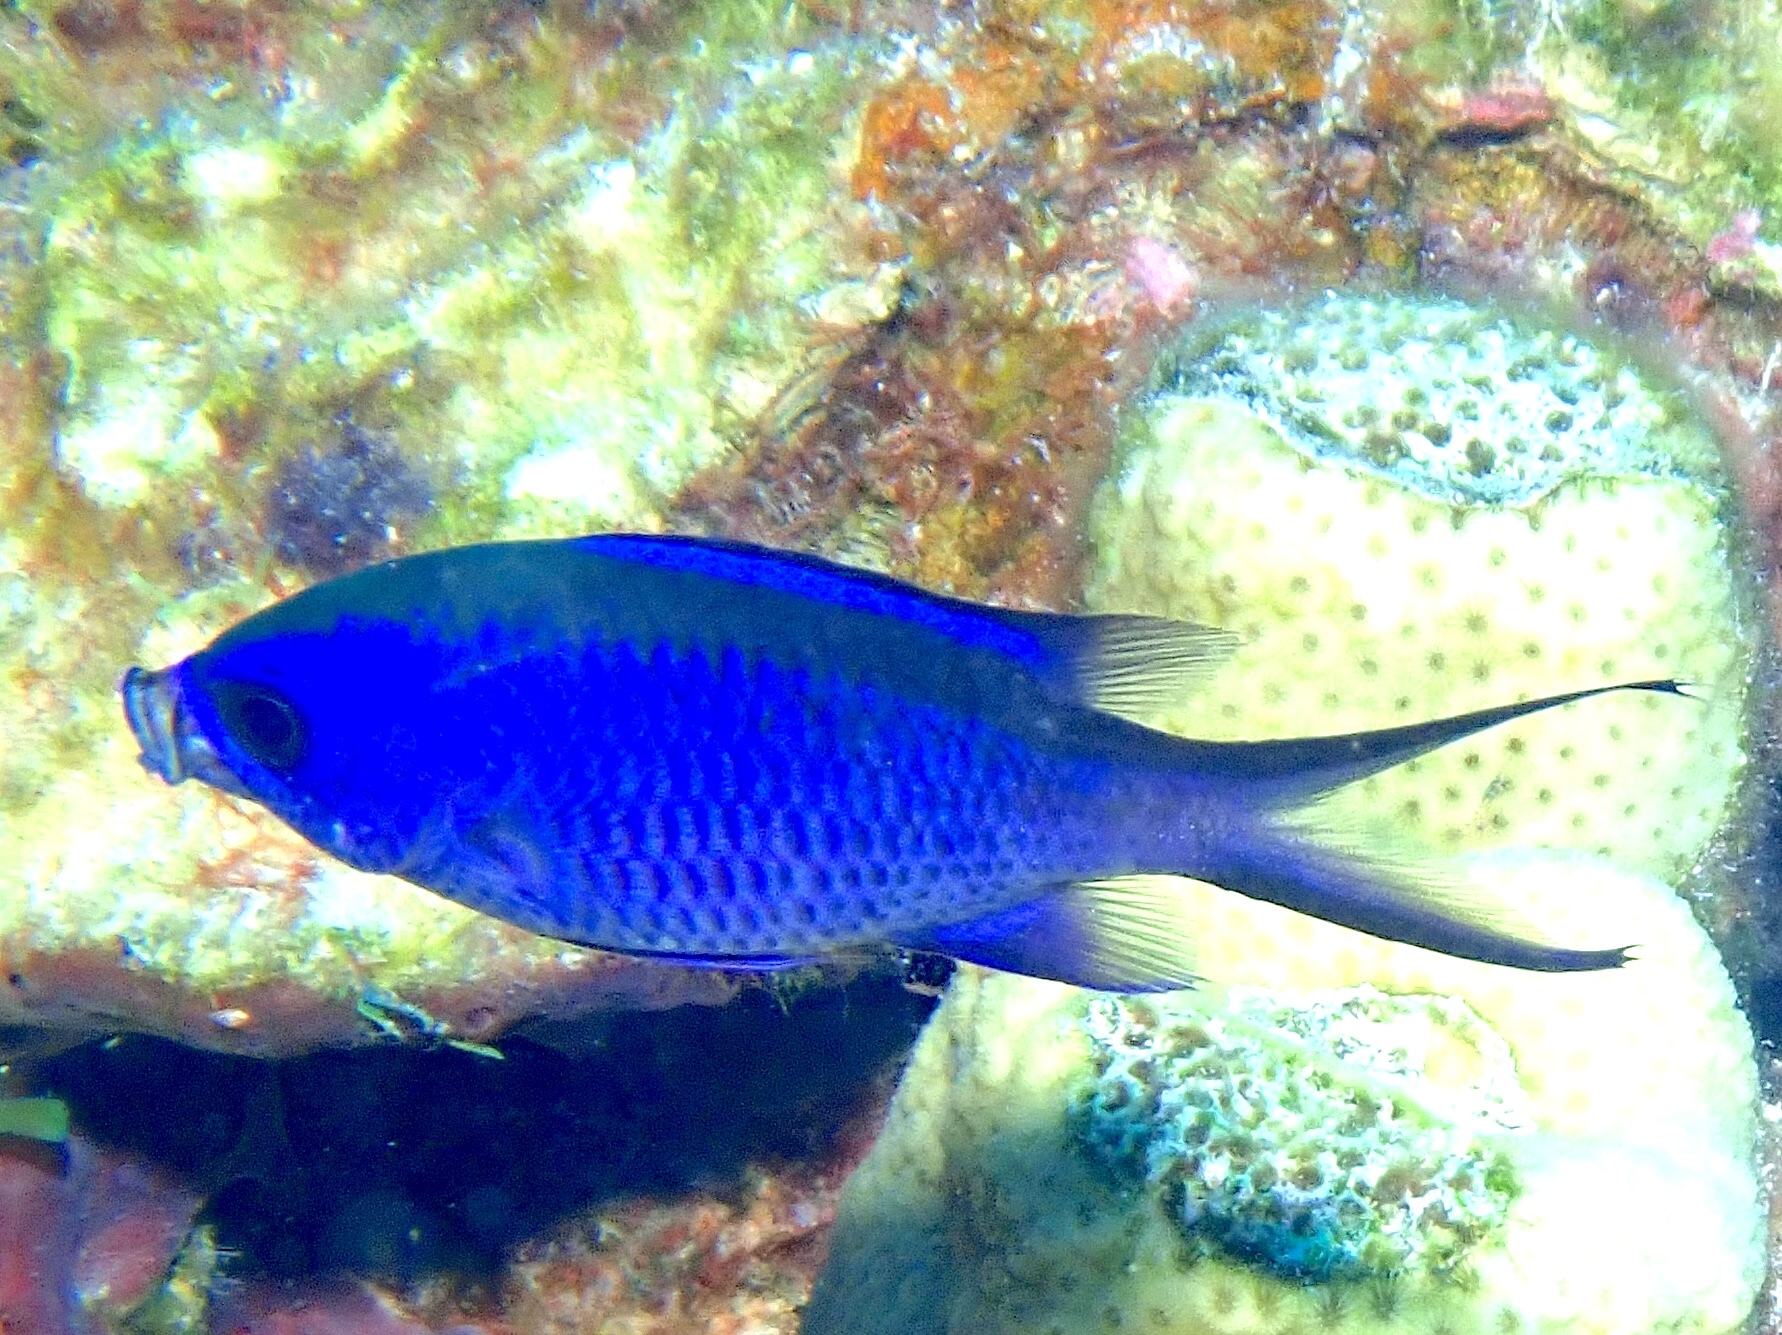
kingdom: Animalia
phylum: Chordata
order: Perciformes
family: Pomacentridae
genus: Chromis
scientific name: Chromis cyanea
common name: Blue chromis
